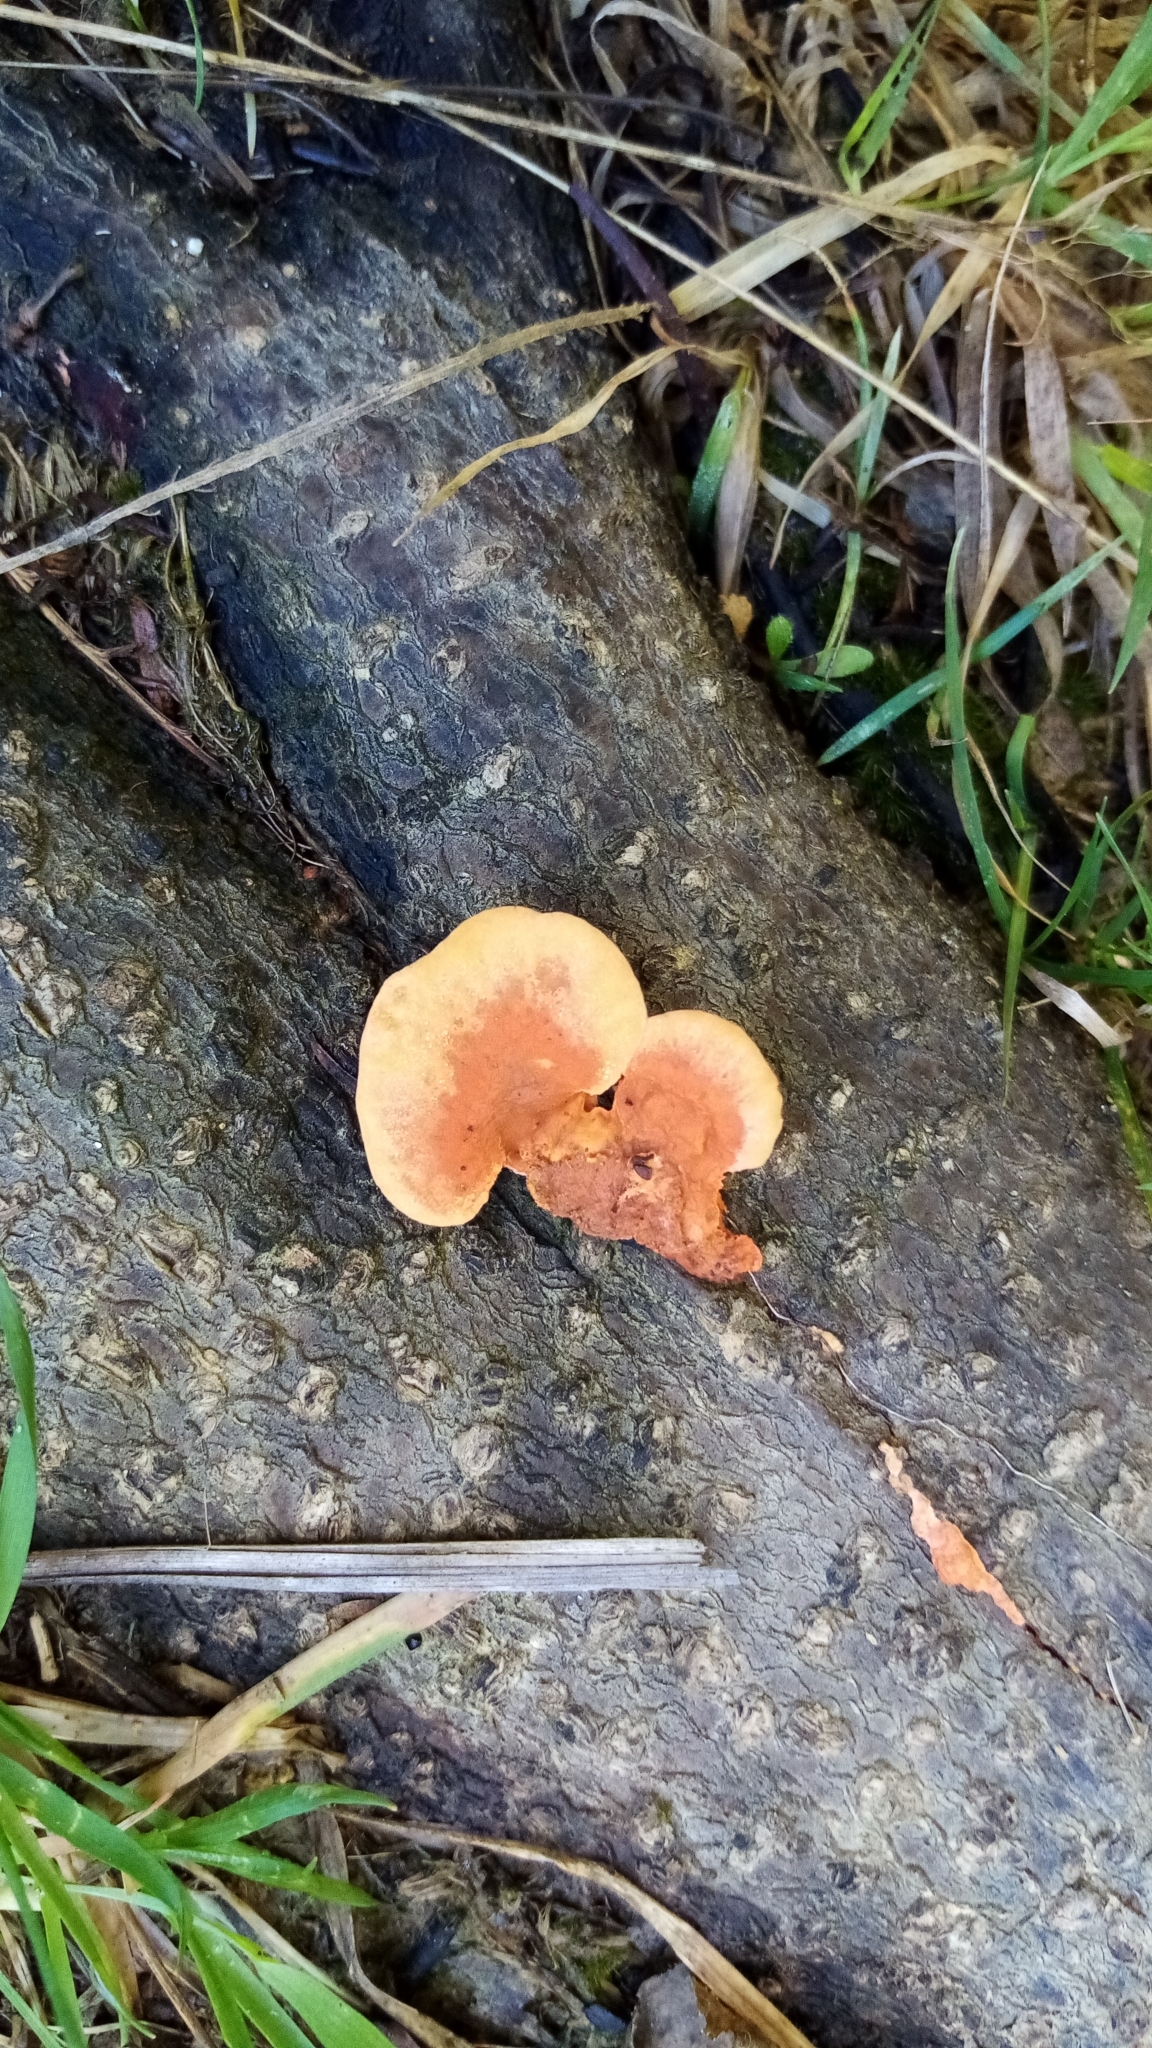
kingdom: Fungi
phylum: Basidiomycota
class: Agaricomycetes
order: Polyporales
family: Polyporaceae
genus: Trametes
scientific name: Trametes coccinea
